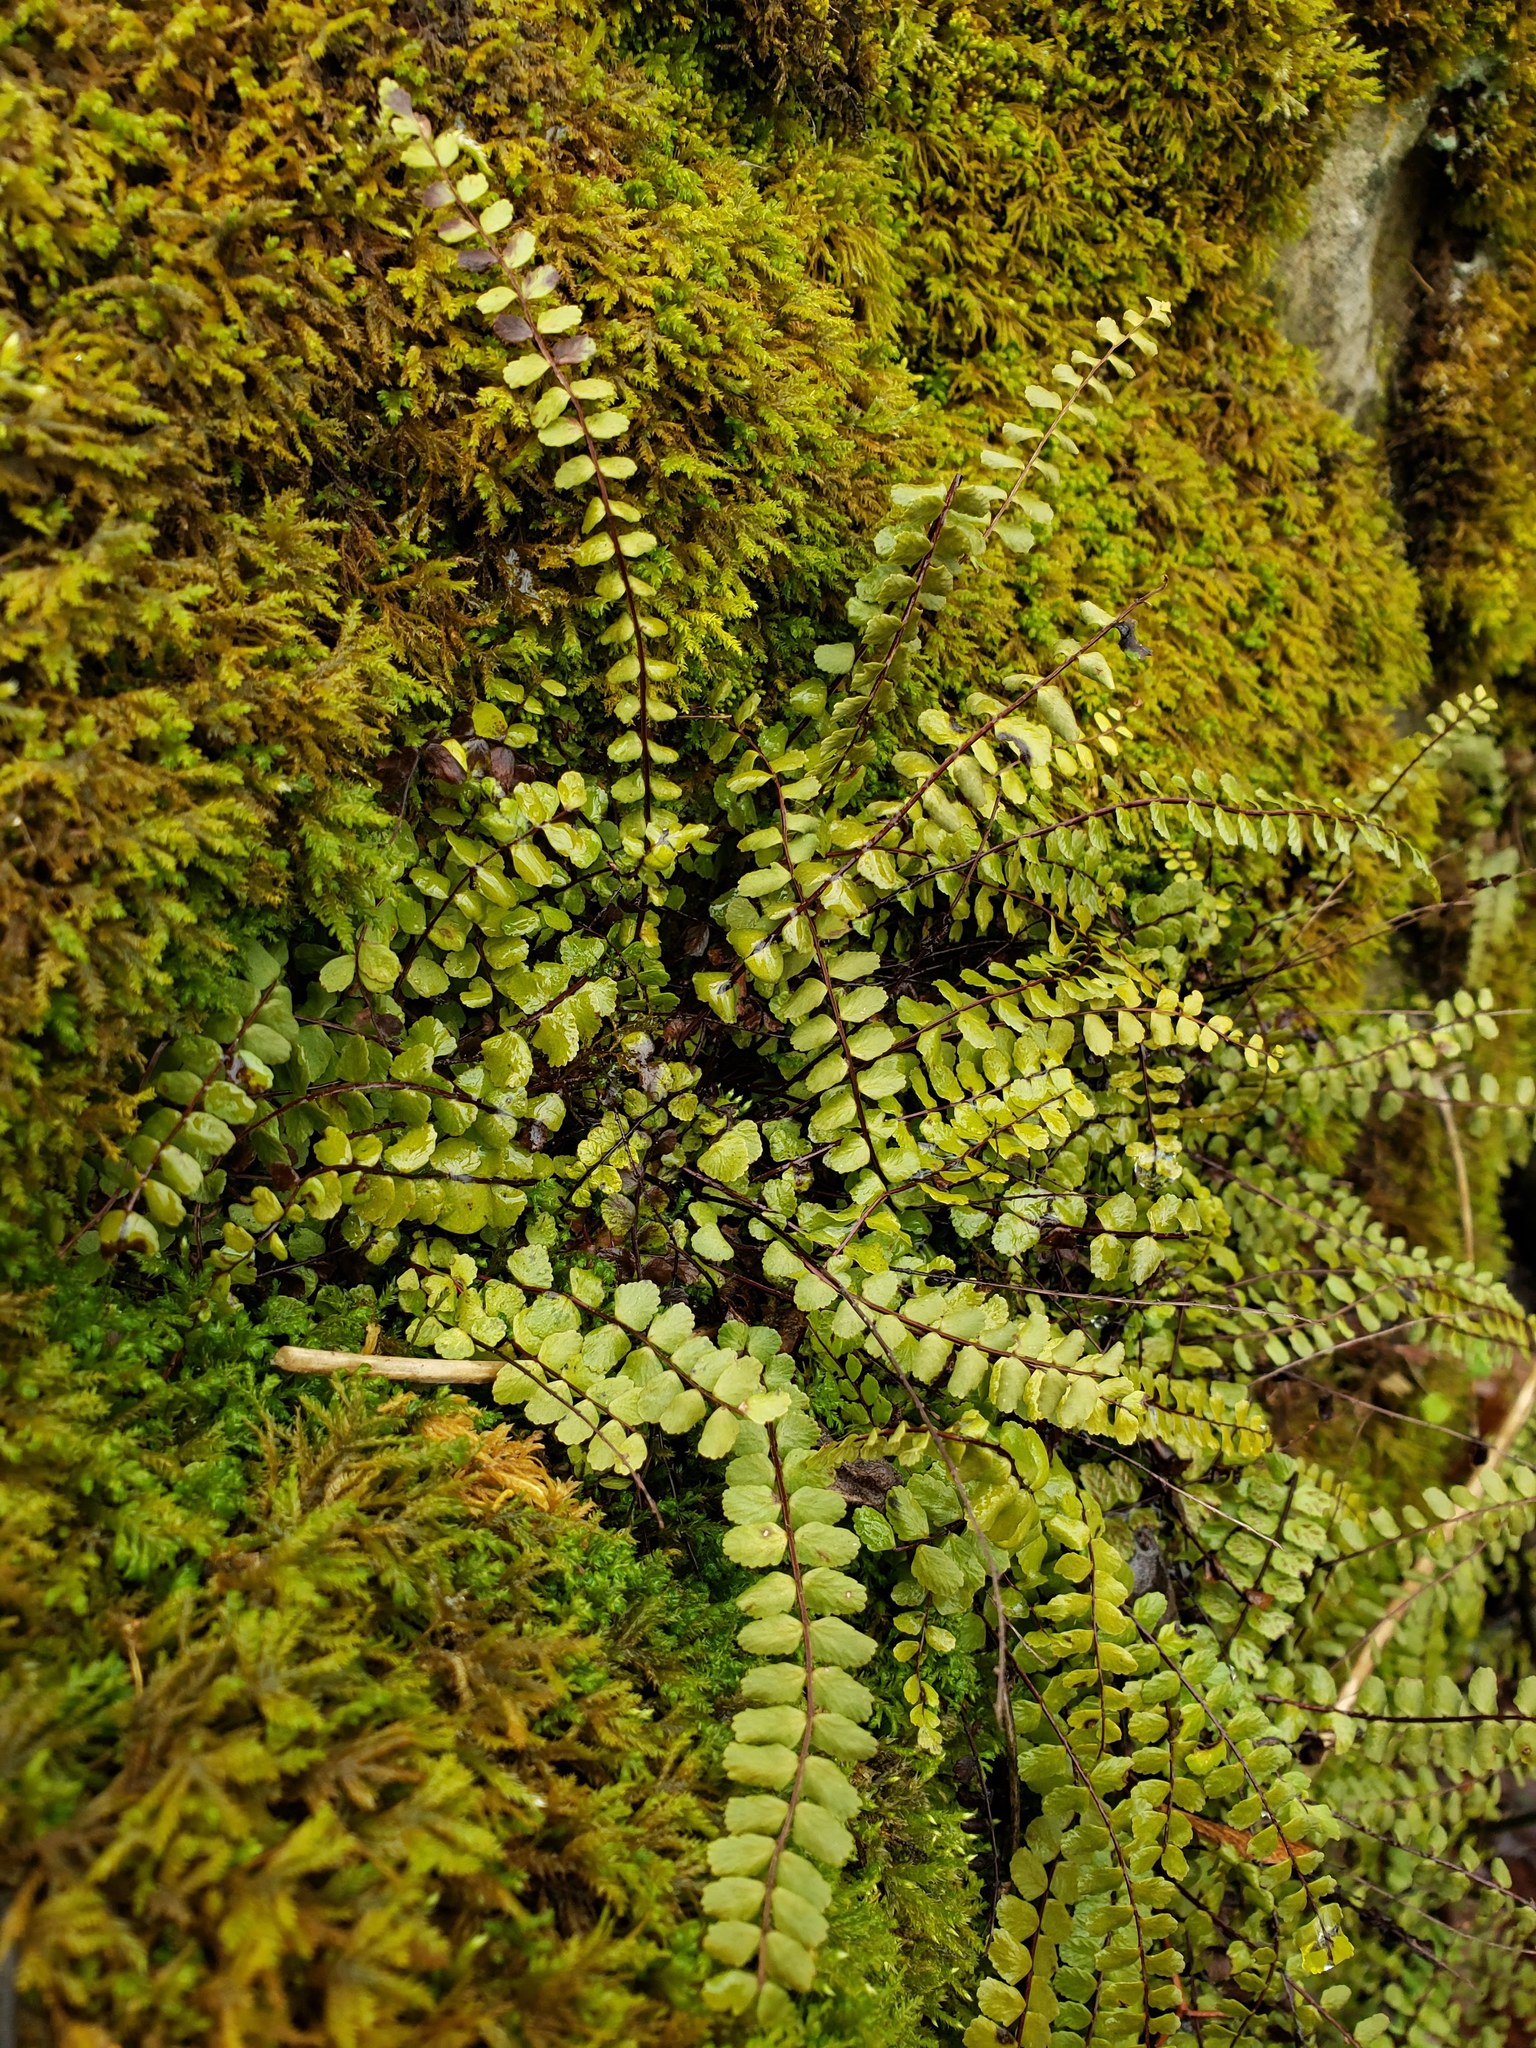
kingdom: Plantae
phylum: Tracheophyta
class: Polypodiopsida
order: Polypodiales
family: Aspleniaceae
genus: Asplenium
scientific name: Asplenium trichomanes
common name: Maidenhair spleenwort
